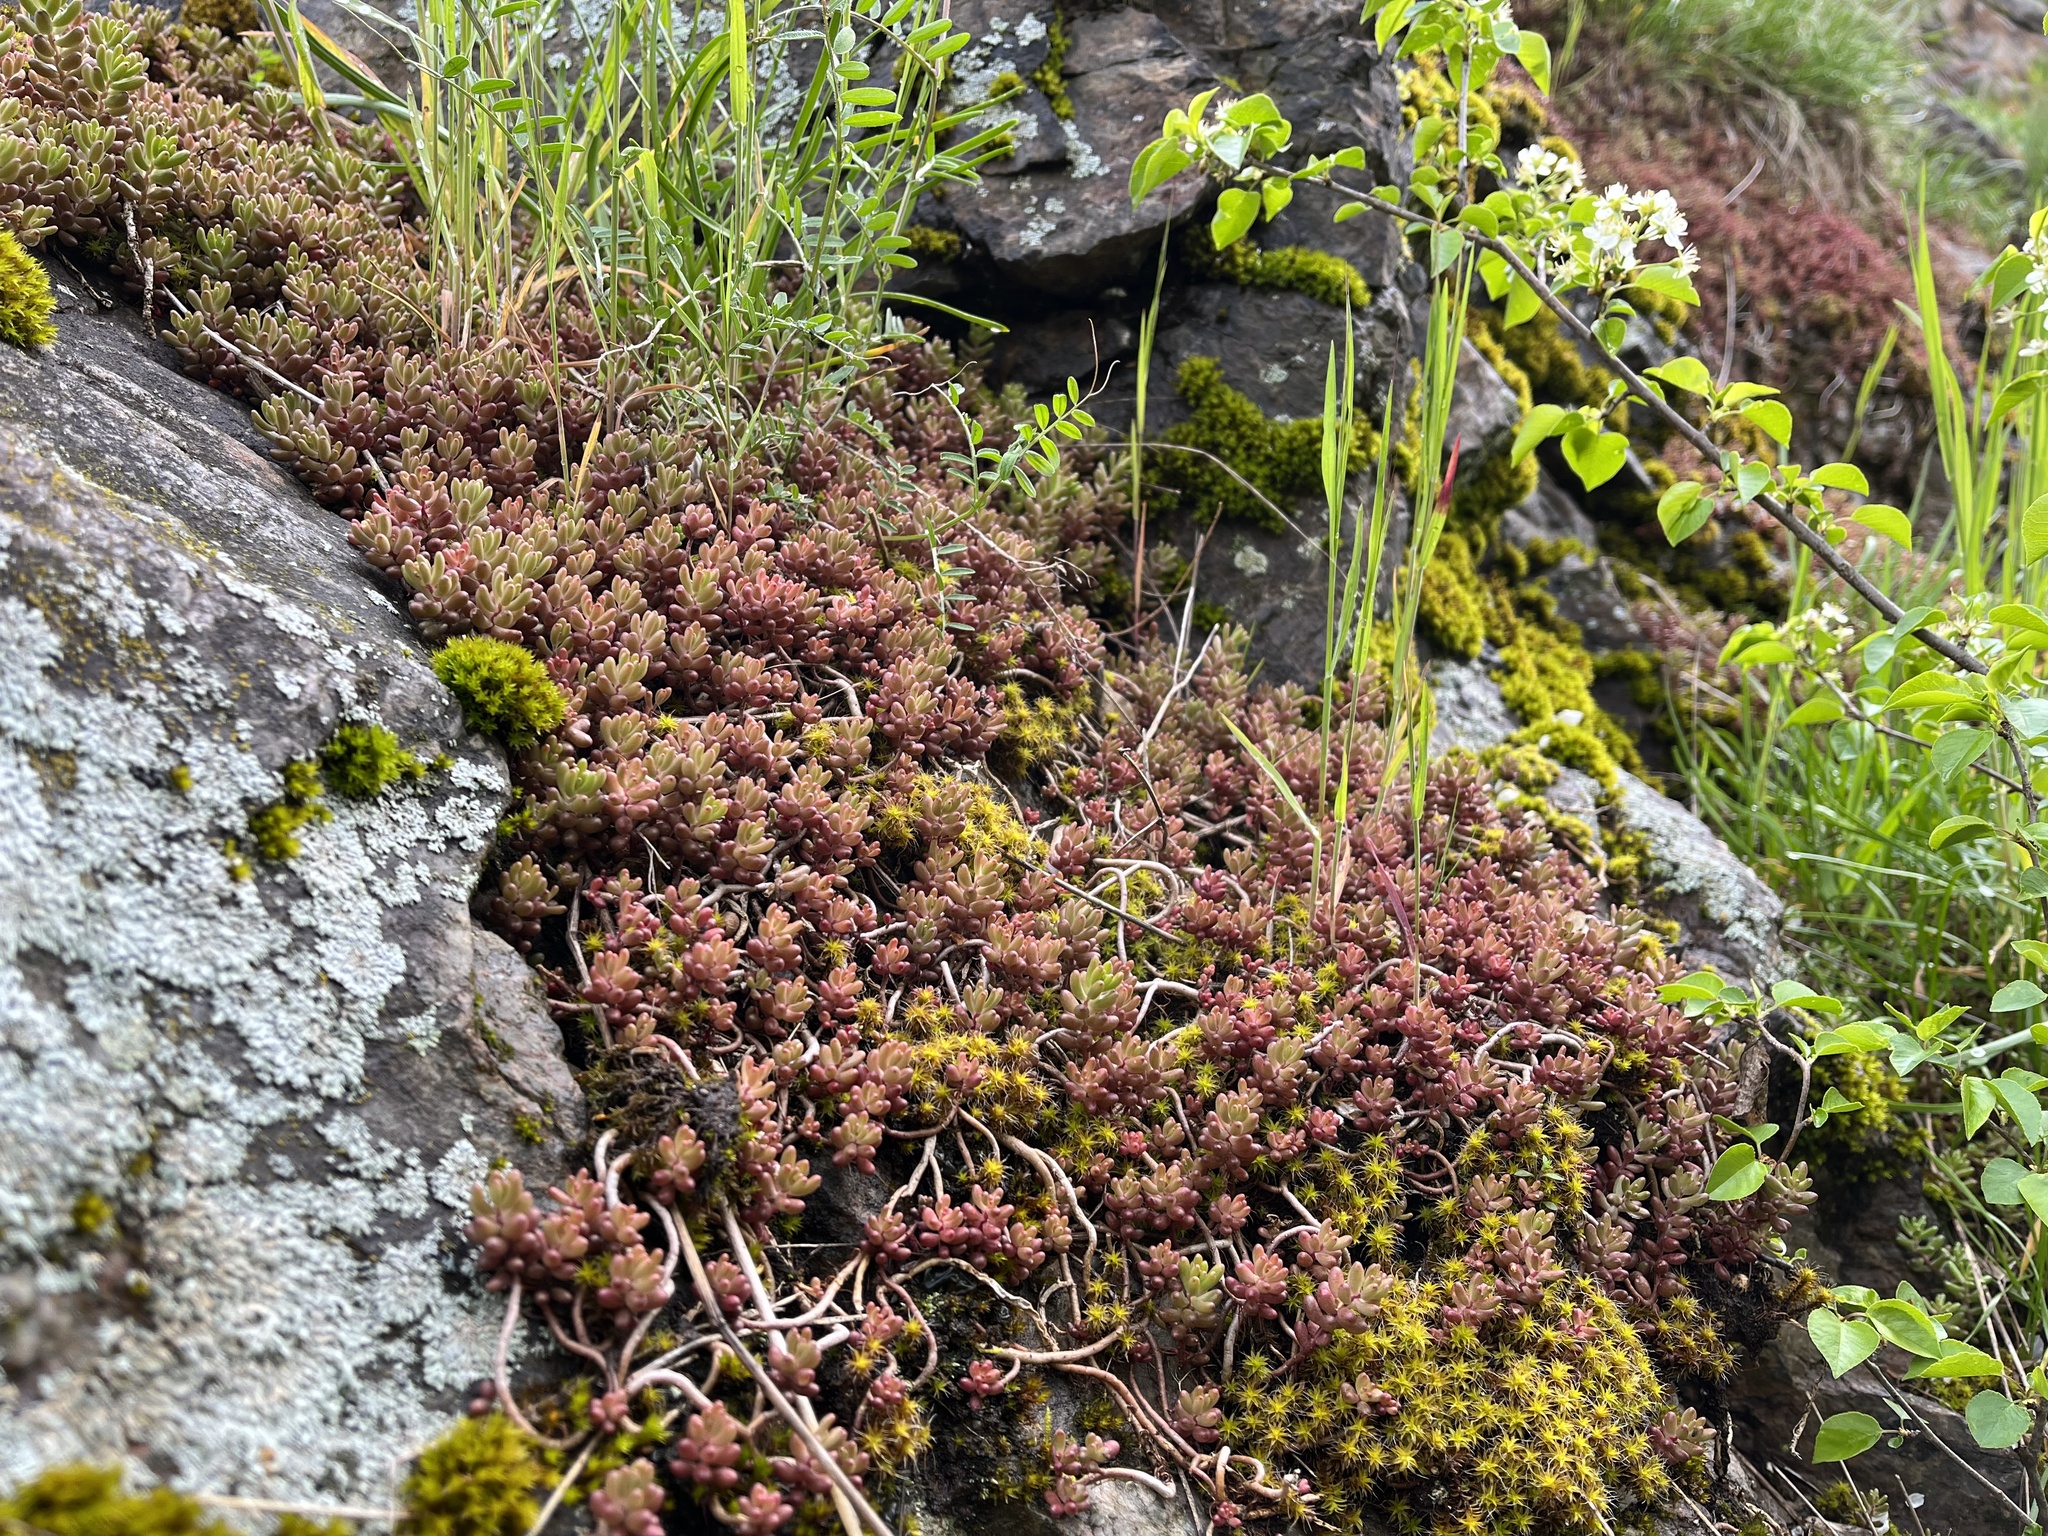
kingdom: Plantae
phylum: Tracheophyta
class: Magnoliopsida
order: Saxifragales
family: Crassulaceae
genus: Sedum
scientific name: Sedum album
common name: White stonecrop
